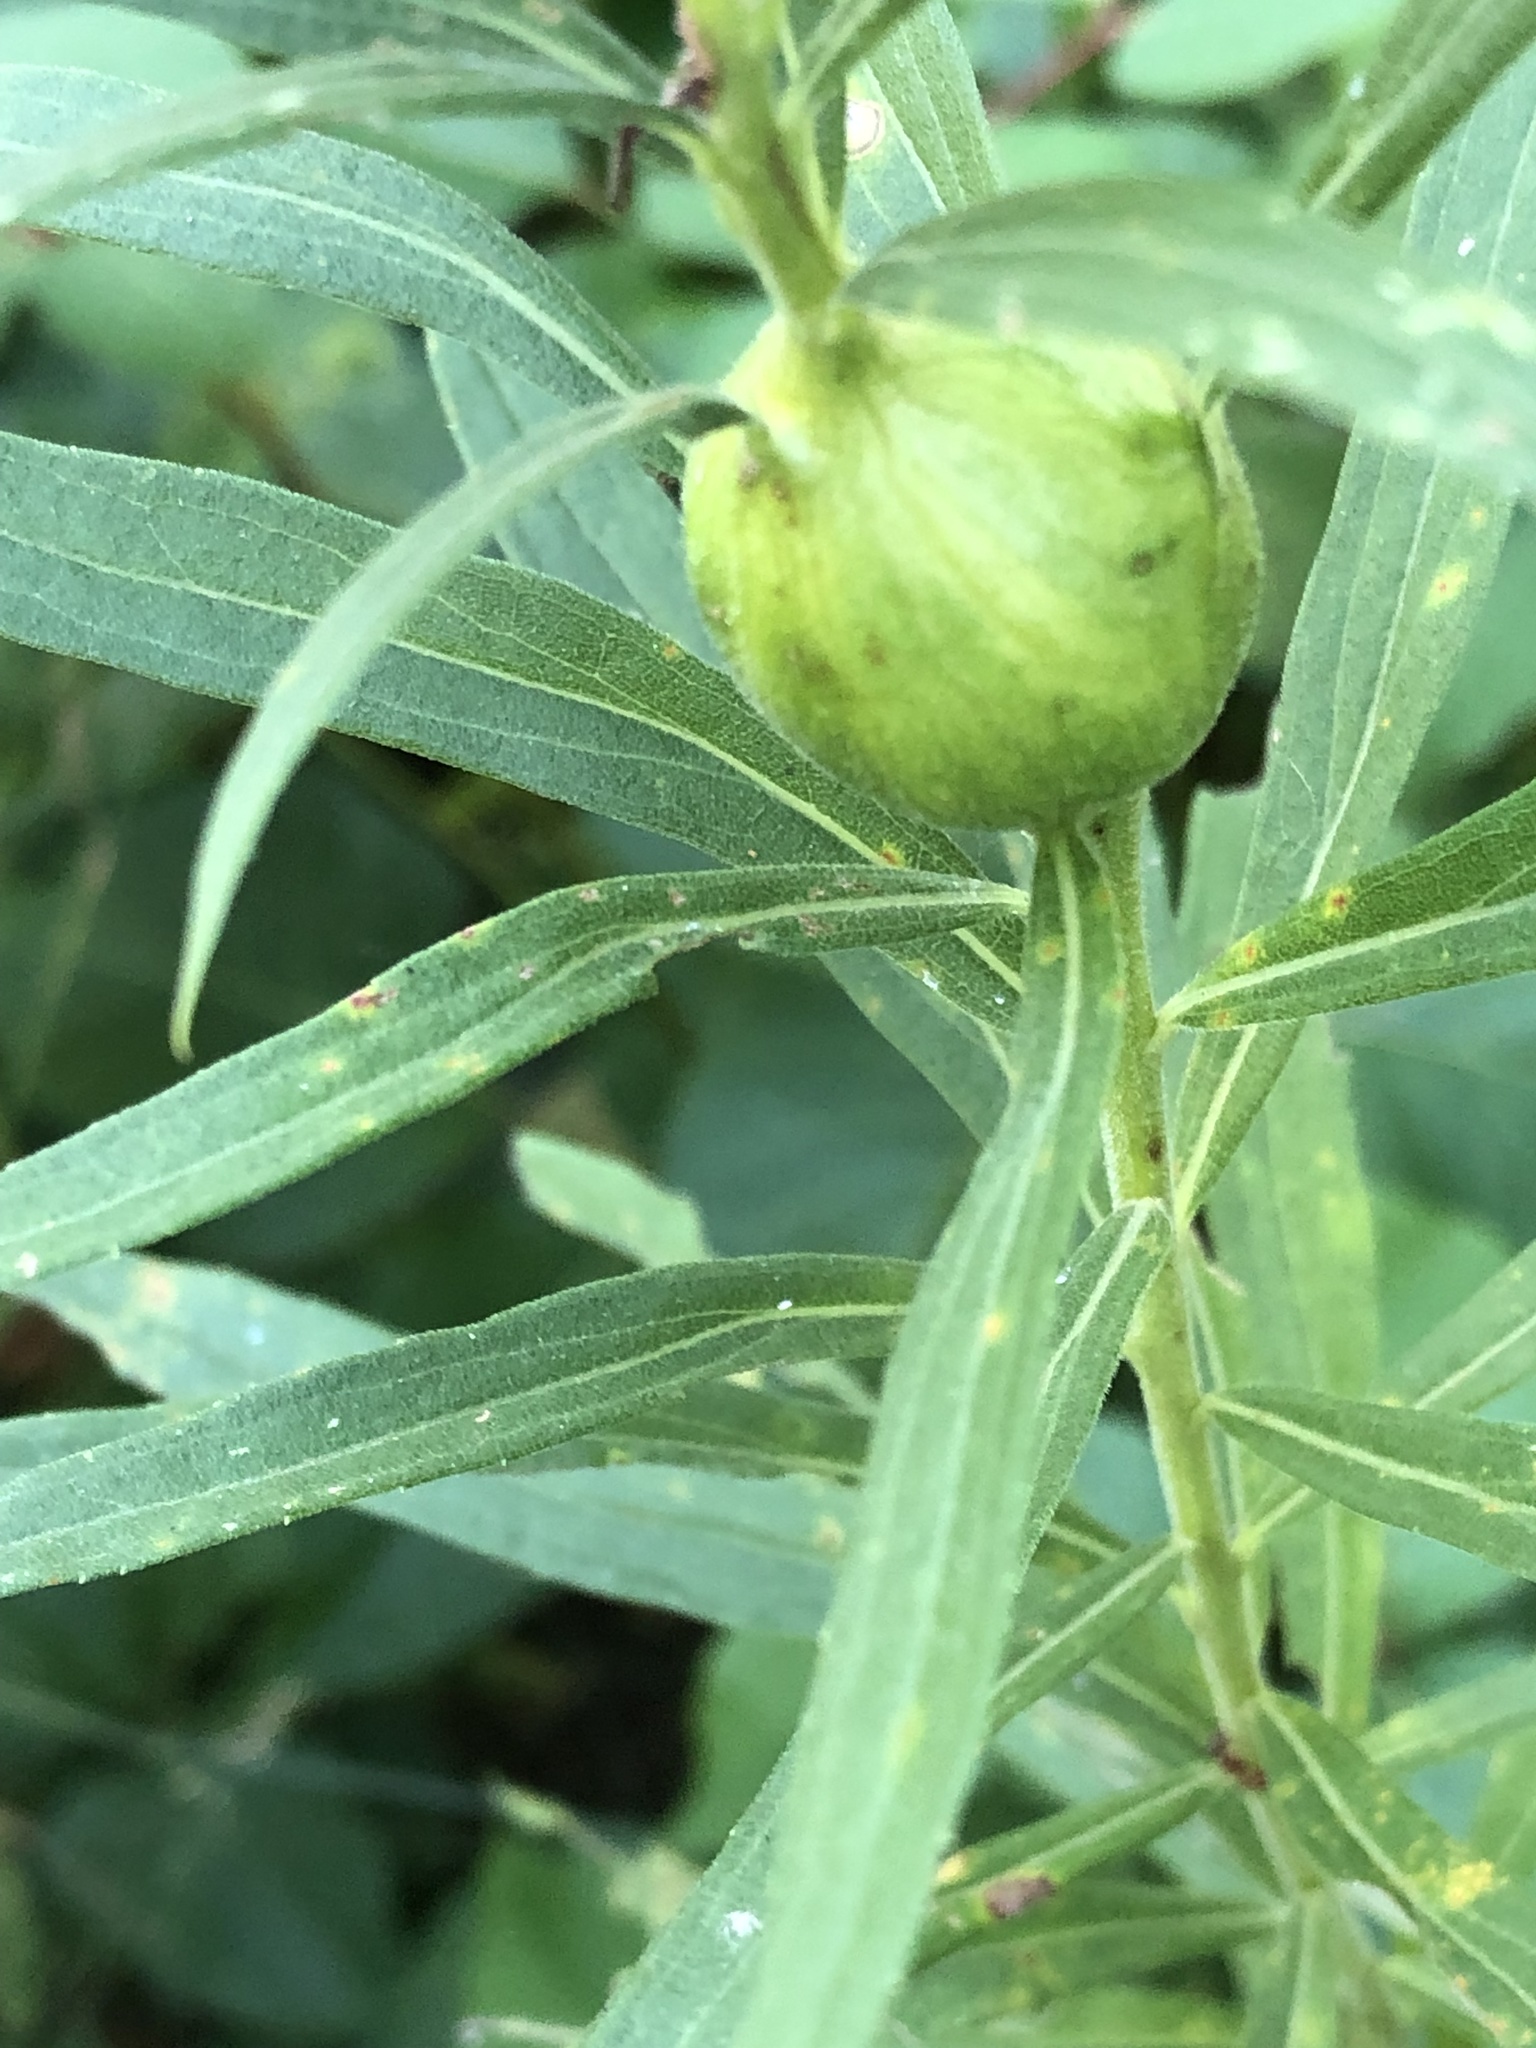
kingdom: Animalia
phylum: Arthropoda
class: Insecta
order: Diptera
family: Tephritidae
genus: Eurosta
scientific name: Eurosta solidaginis
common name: Goldenrod gall fly
